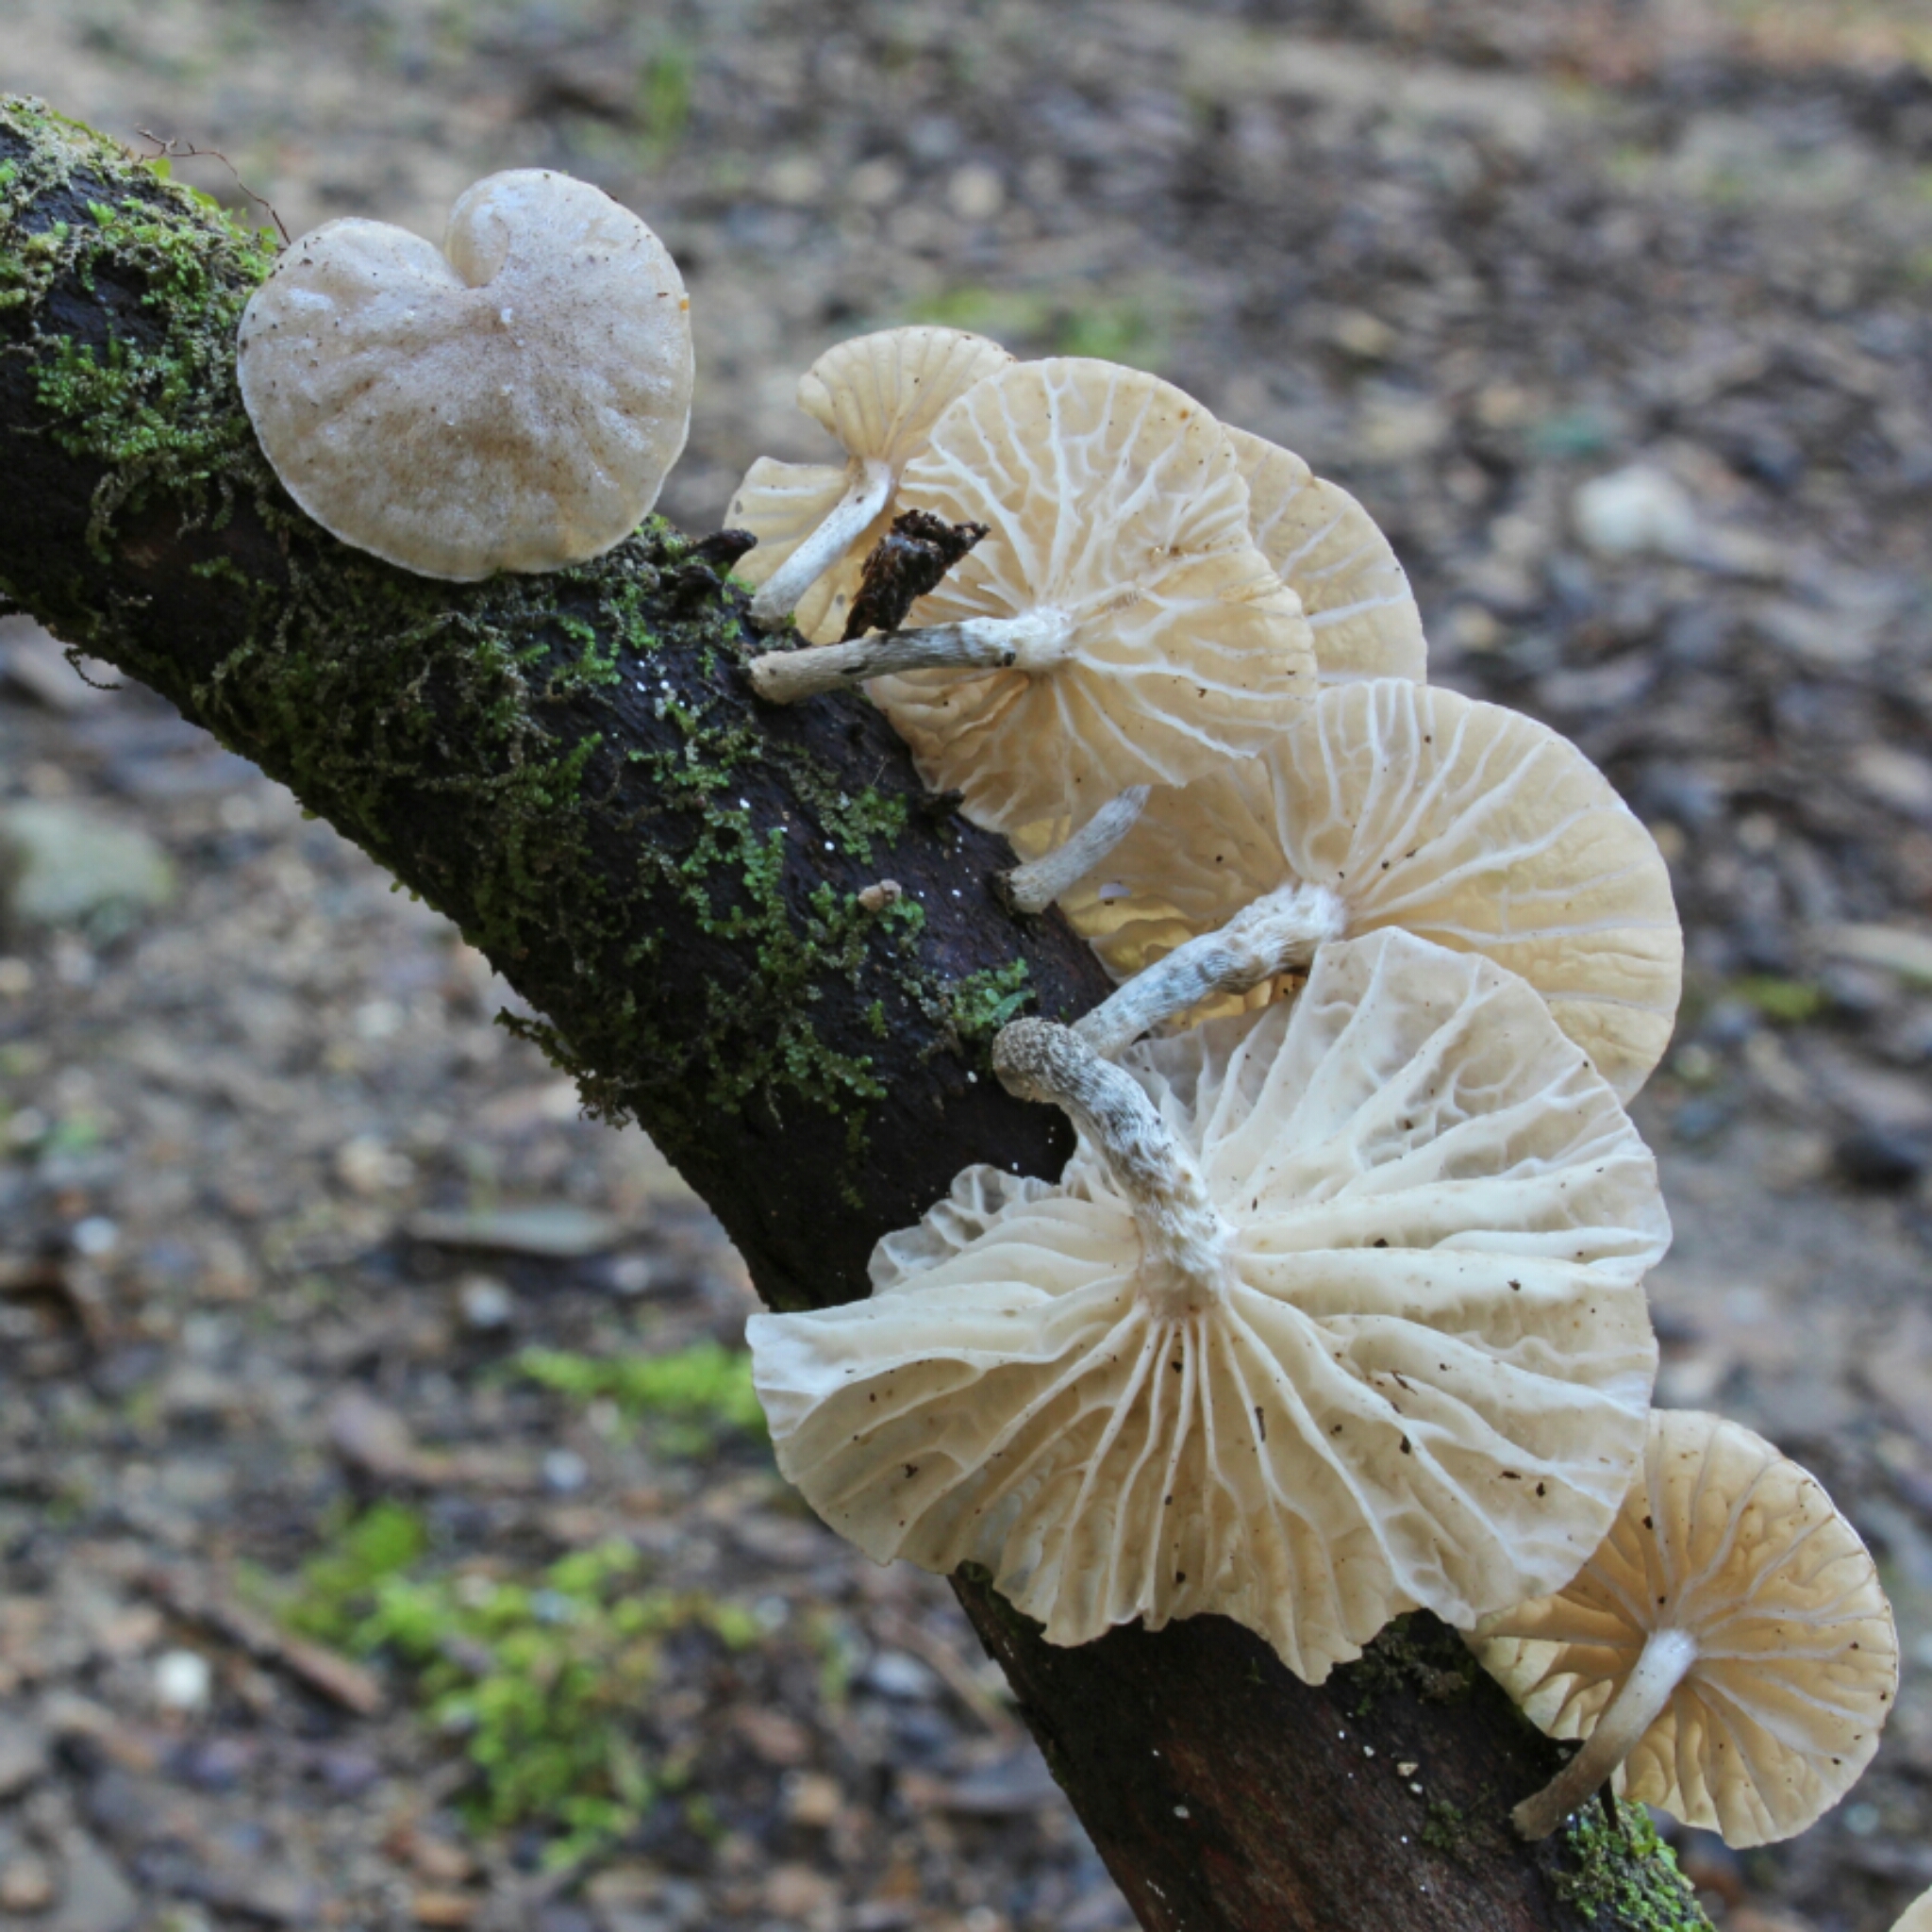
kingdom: Fungi
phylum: Basidiomycota
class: Agaricomycetes
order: Agaricales
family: Omphalotaceae
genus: Marasmiellus
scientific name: Marasmiellus virgatocutis
